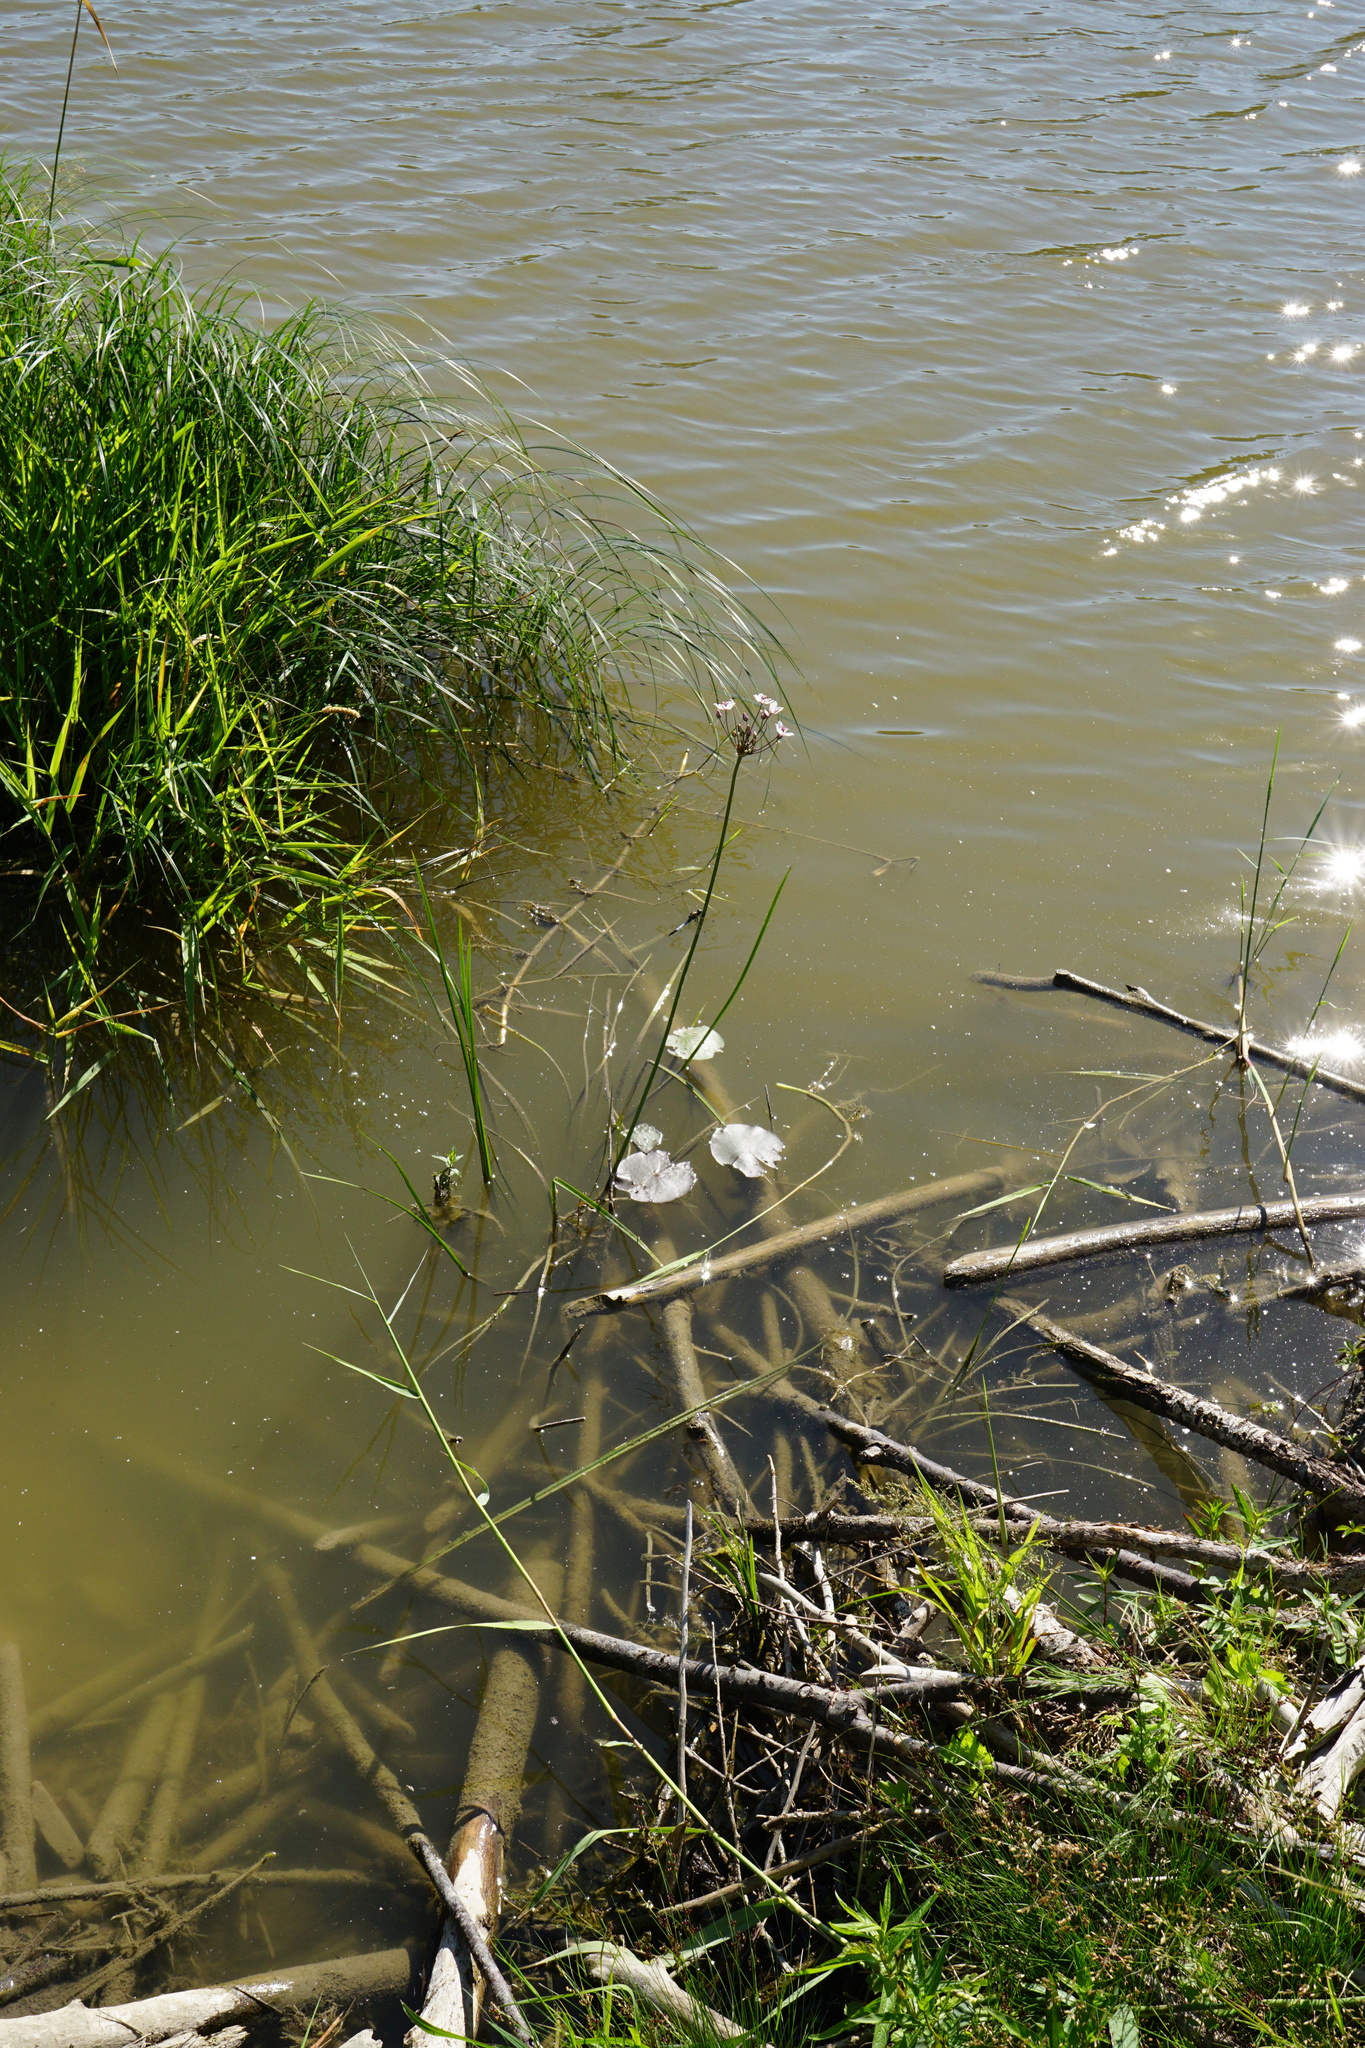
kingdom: Plantae
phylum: Tracheophyta
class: Liliopsida
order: Alismatales
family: Butomaceae
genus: Butomus
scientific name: Butomus umbellatus
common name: Flowering-rush
